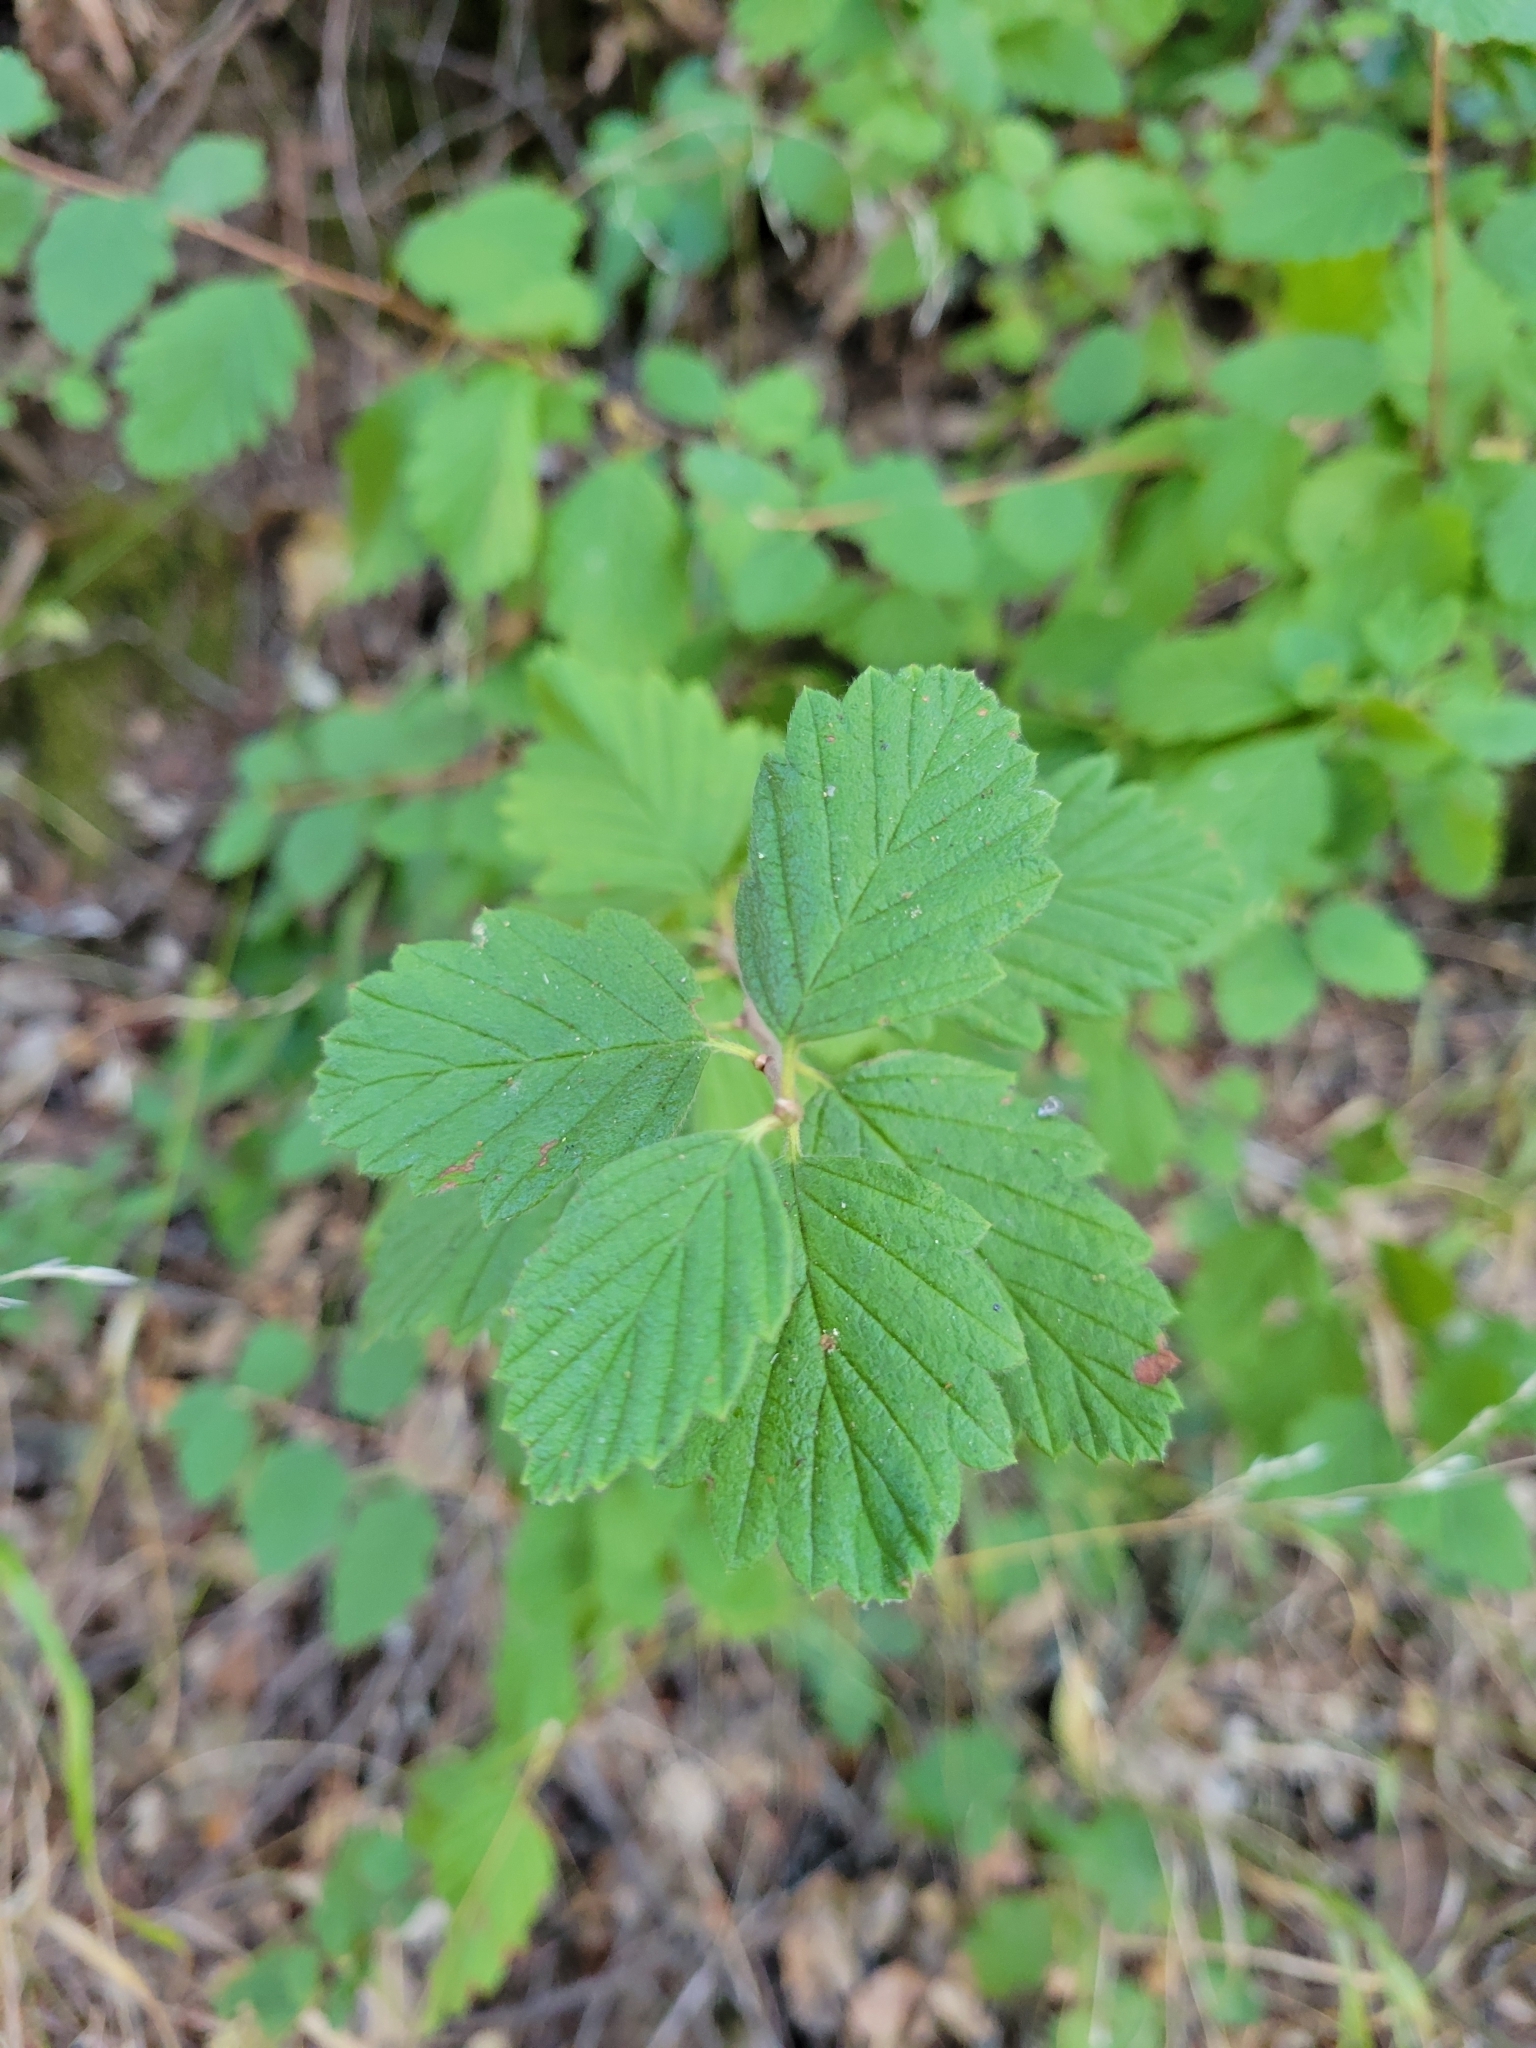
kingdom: Plantae
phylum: Tracheophyta
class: Magnoliopsida
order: Rosales
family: Rosaceae
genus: Holodiscus
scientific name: Holodiscus discolor
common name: Oceanspray
